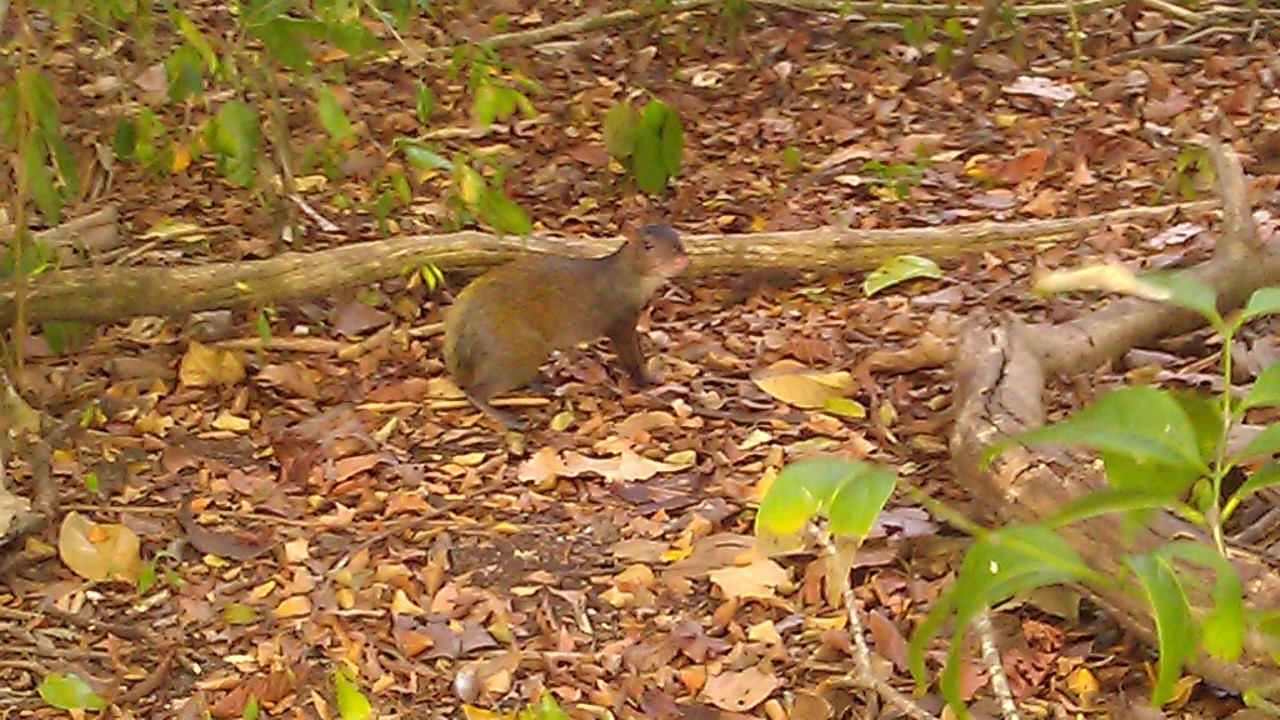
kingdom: Animalia
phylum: Chordata
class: Mammalia
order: Rodentia
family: Dasyproctidae
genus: Dasyprocta
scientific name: Dasyprocta punctata
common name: Central american agouti
